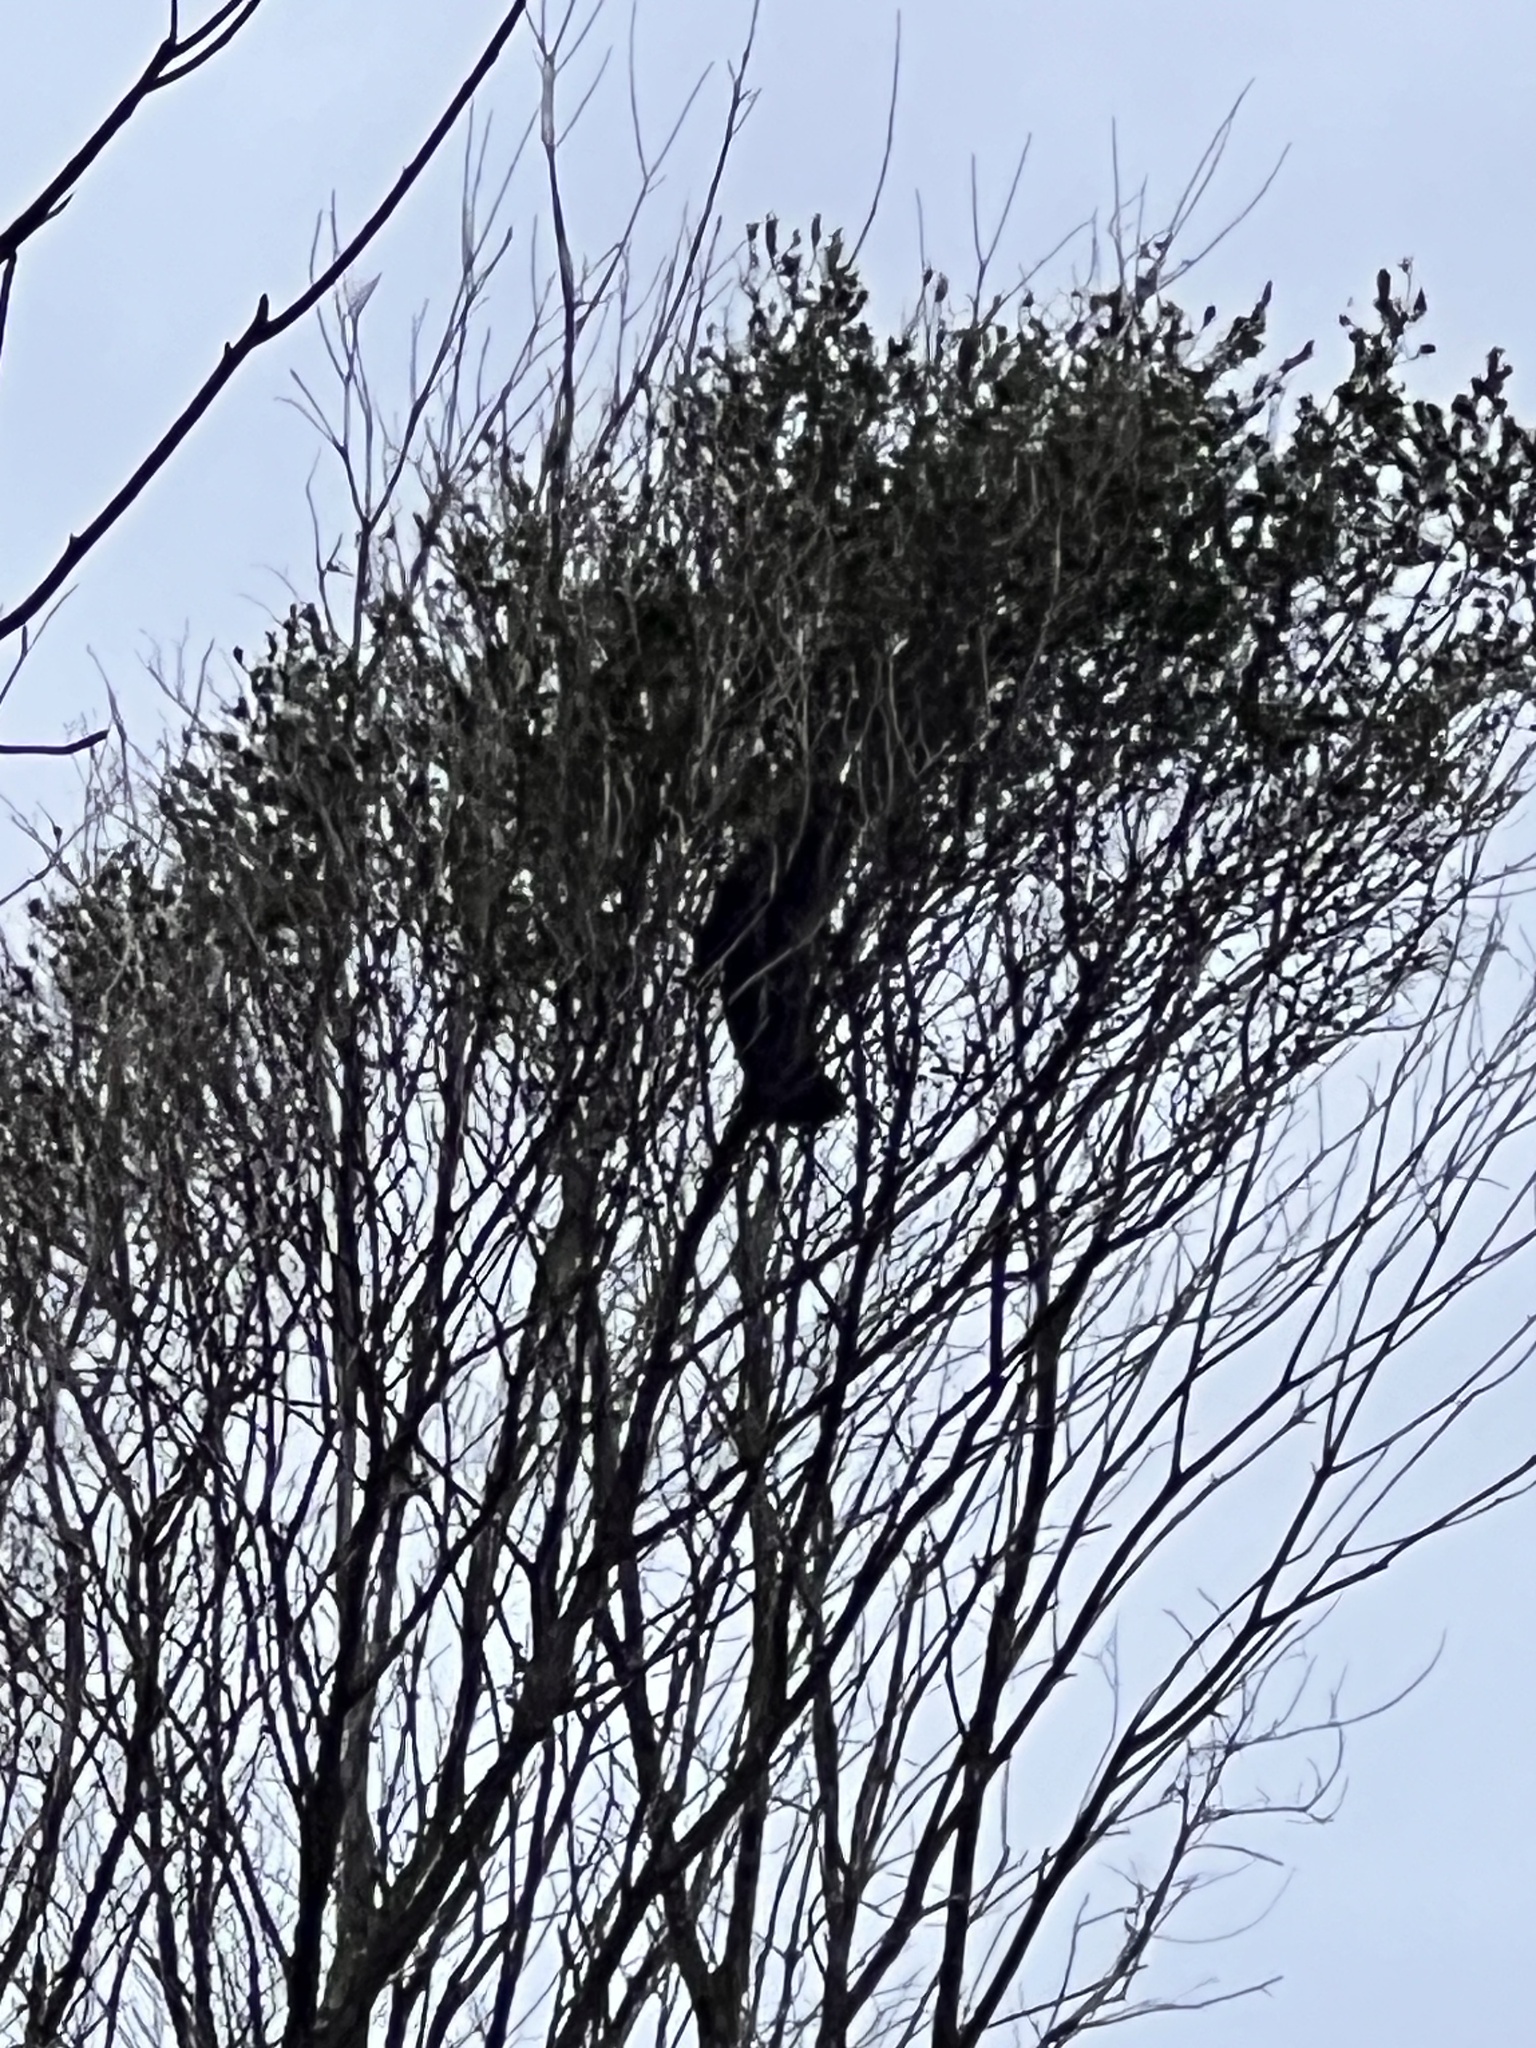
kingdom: Animalia
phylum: Chordata
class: Aves
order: Passeriformes
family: Meliphagidae
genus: Prosthemadera
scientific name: Prosthemadera novaeseelandiae
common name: Tui
